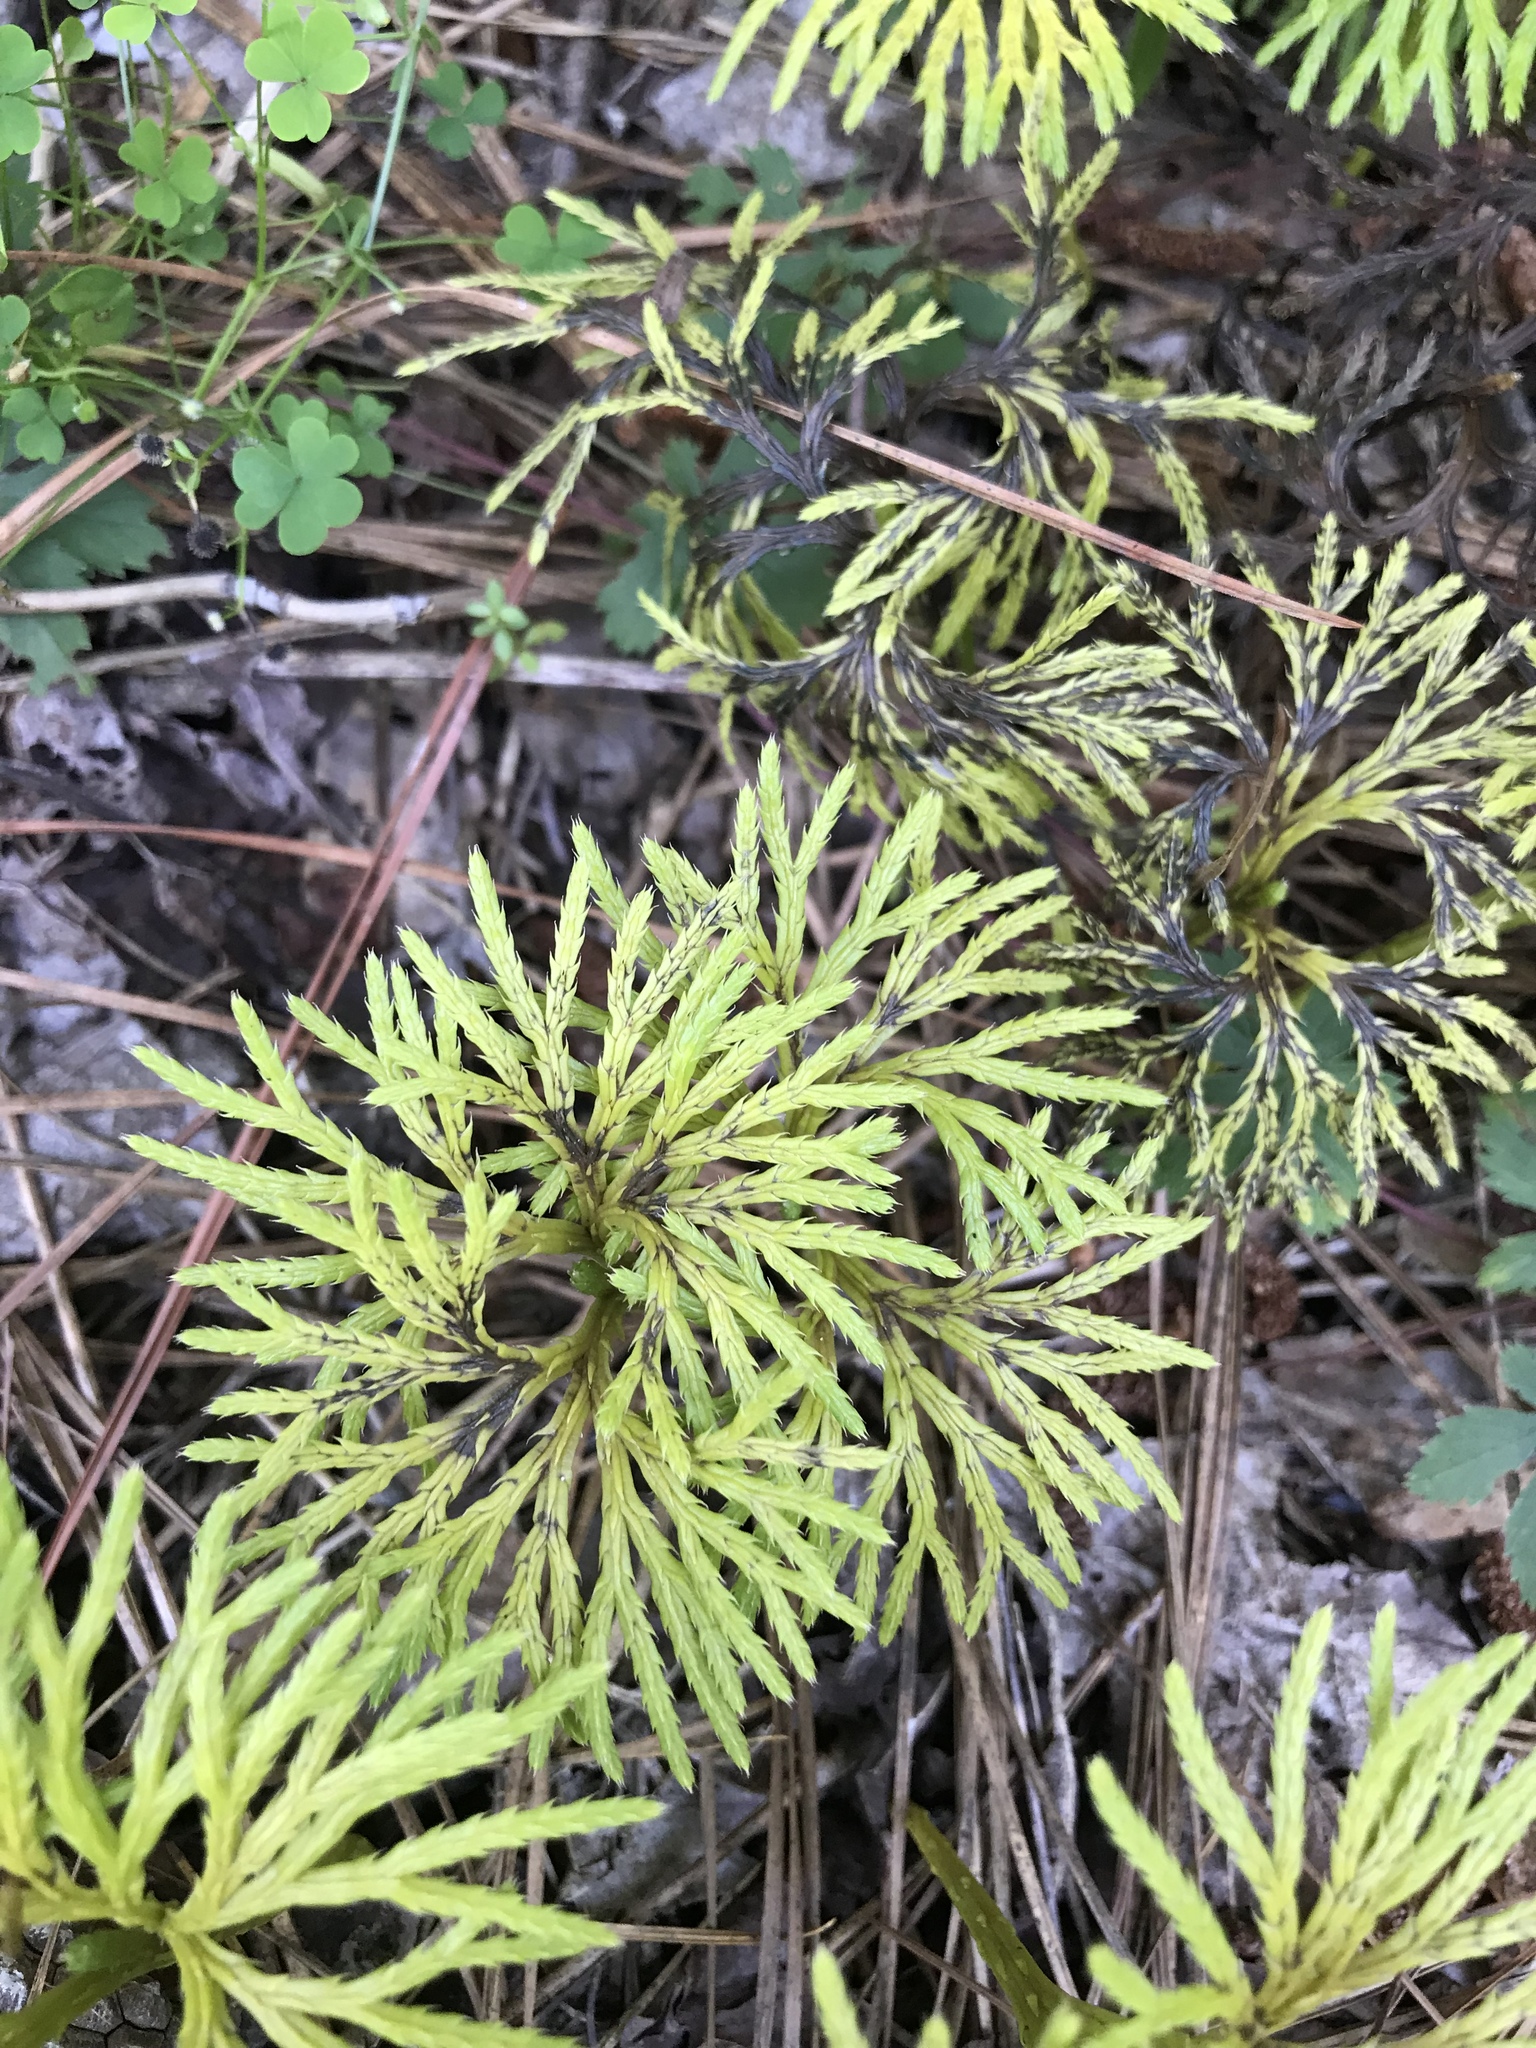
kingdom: Plantae
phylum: Tracheophyta
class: Lycopodiopsida
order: Lycopodiales
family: Lycopodiaceae
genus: Diphasiastrum
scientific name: Diphasiastrum digitatum
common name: Southern running-pine
